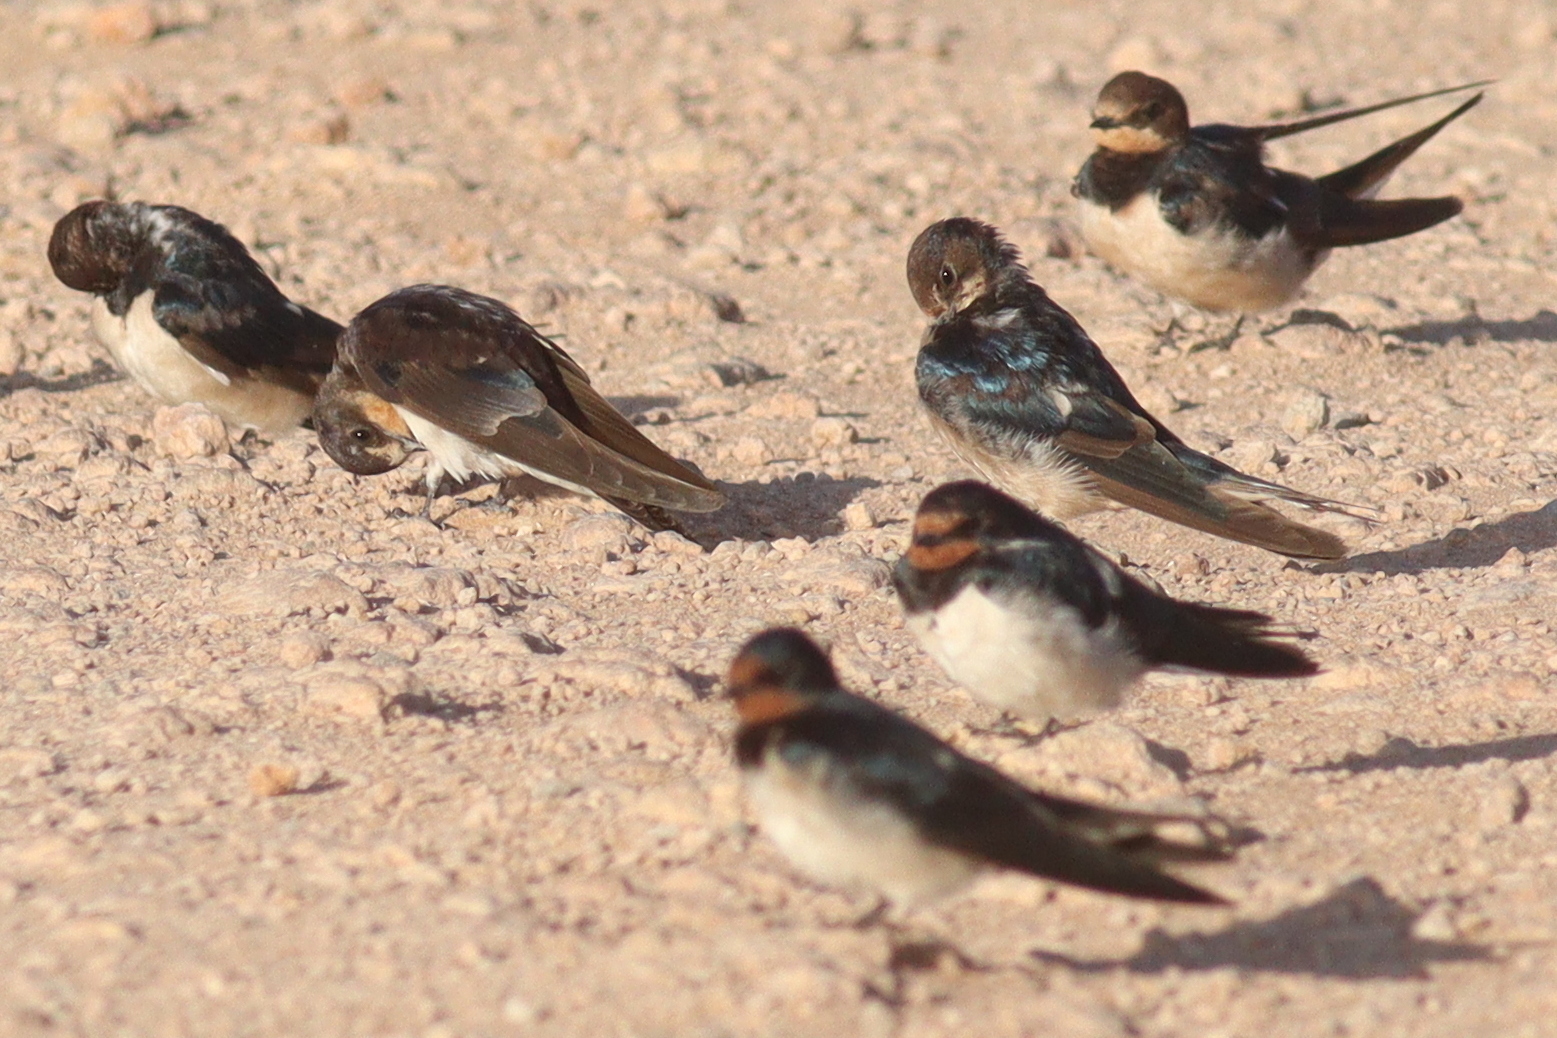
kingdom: Animalia
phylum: Chordata
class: Aves
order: Passeriformes
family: Hirundinidae
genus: Hirundo
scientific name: Hirundo rustica
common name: Barn swallow
